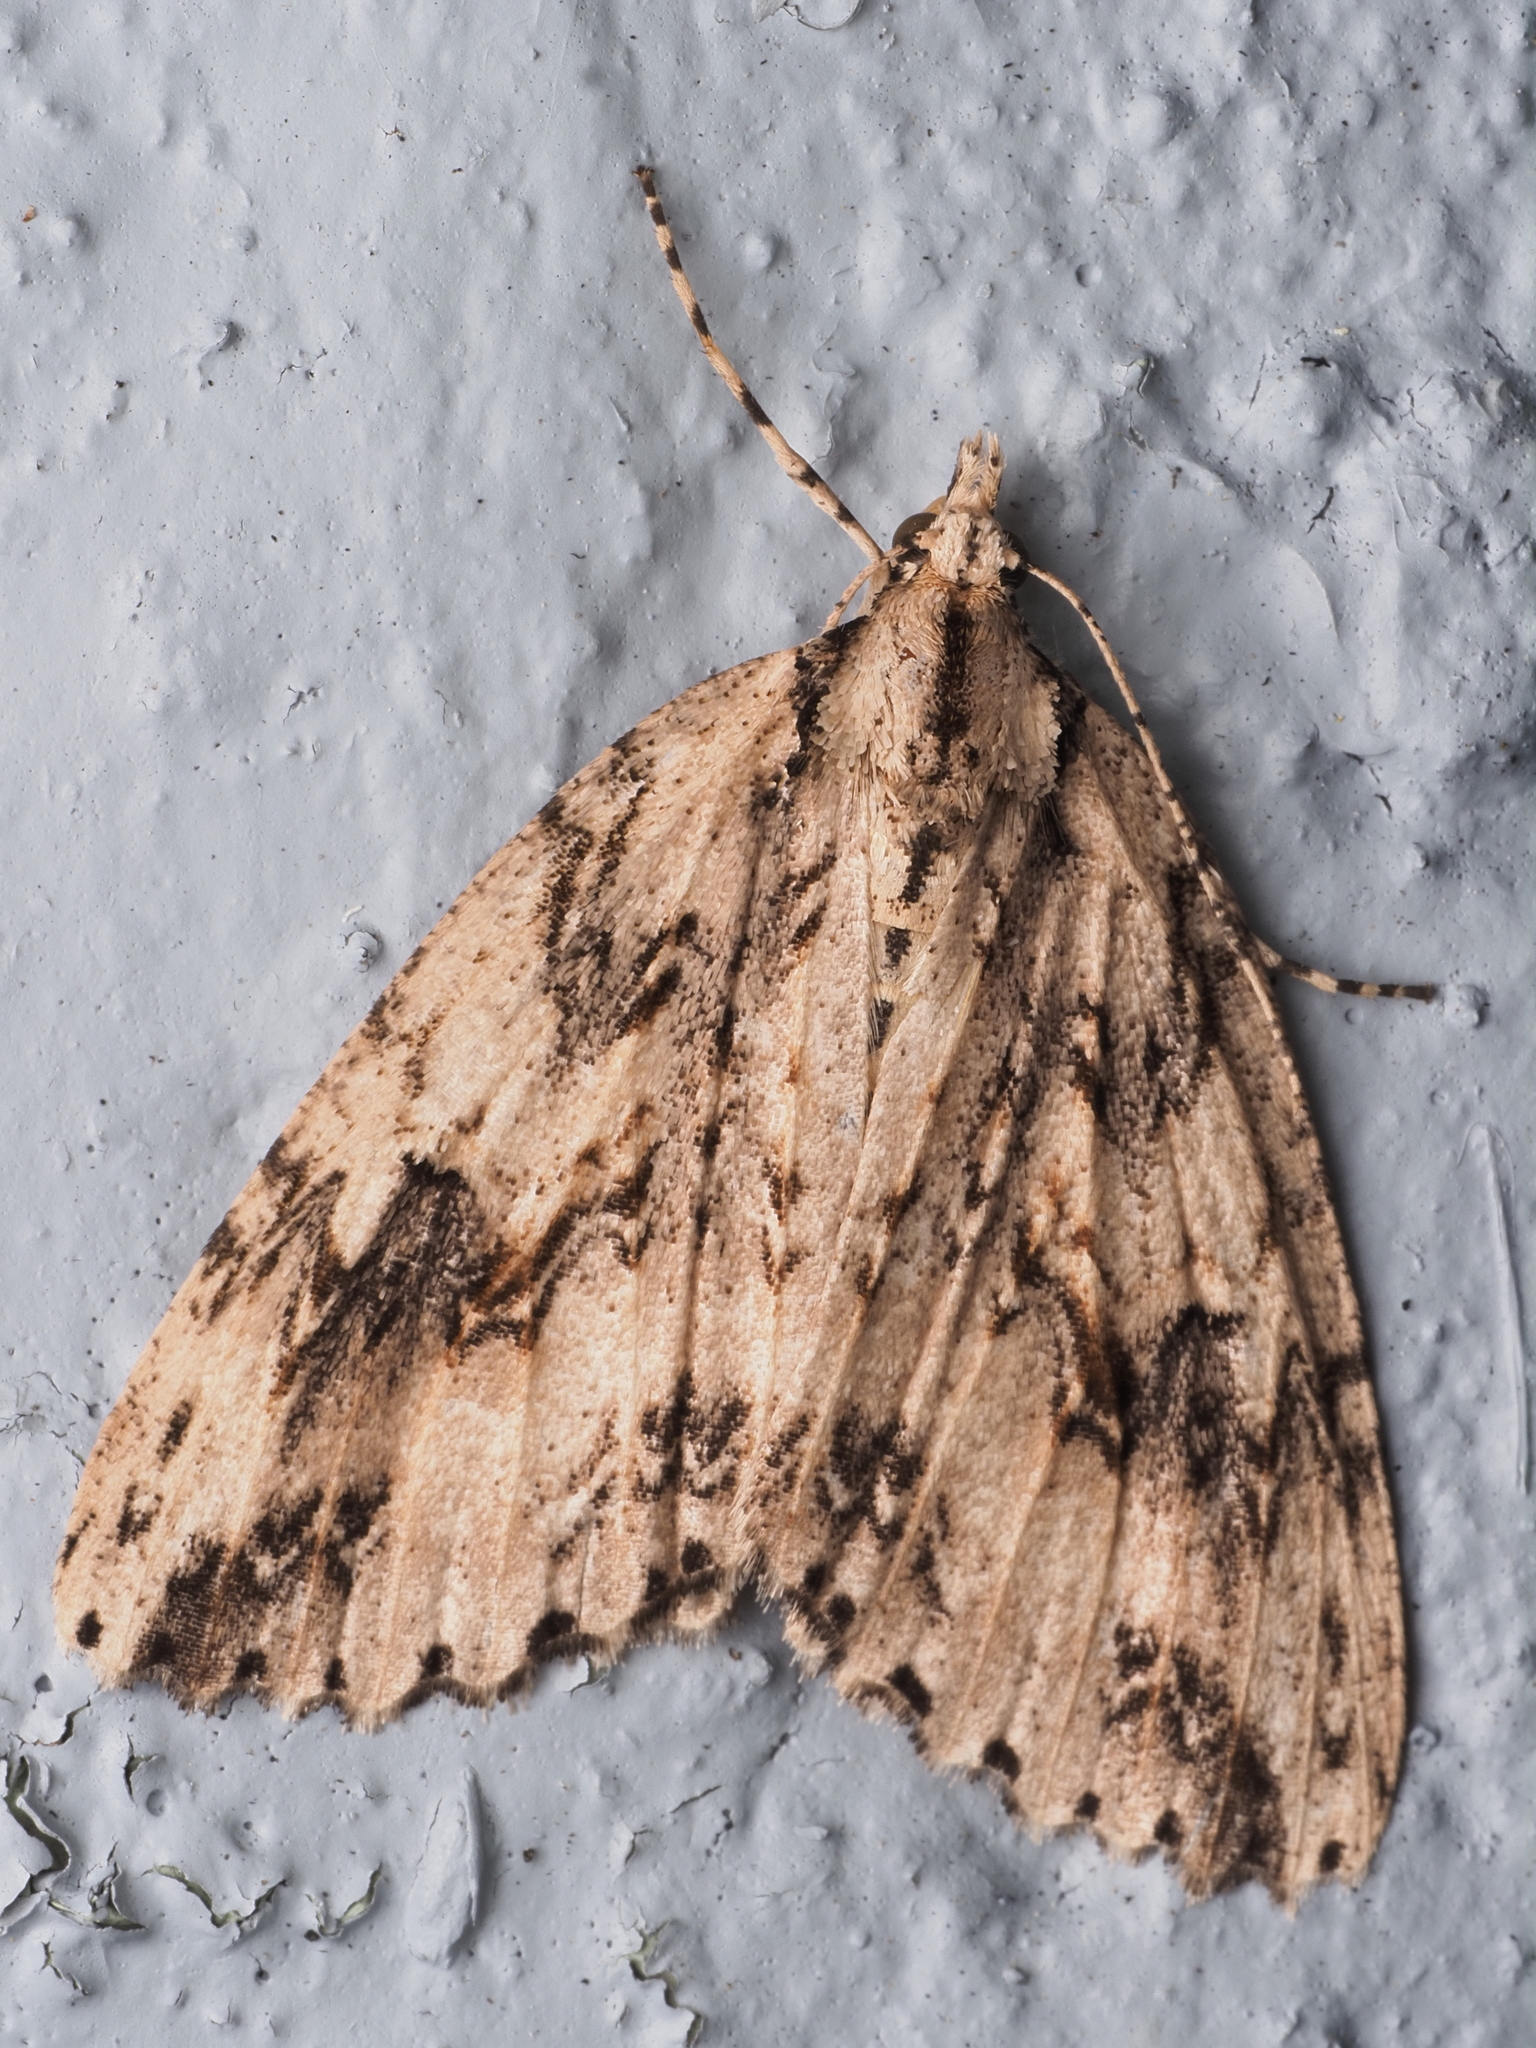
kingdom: Animalia
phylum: Arthropoda
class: Insecta
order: Lepidoptera
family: Geometridae
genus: Pseudocoremia
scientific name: Pseudocoremia rudisata
